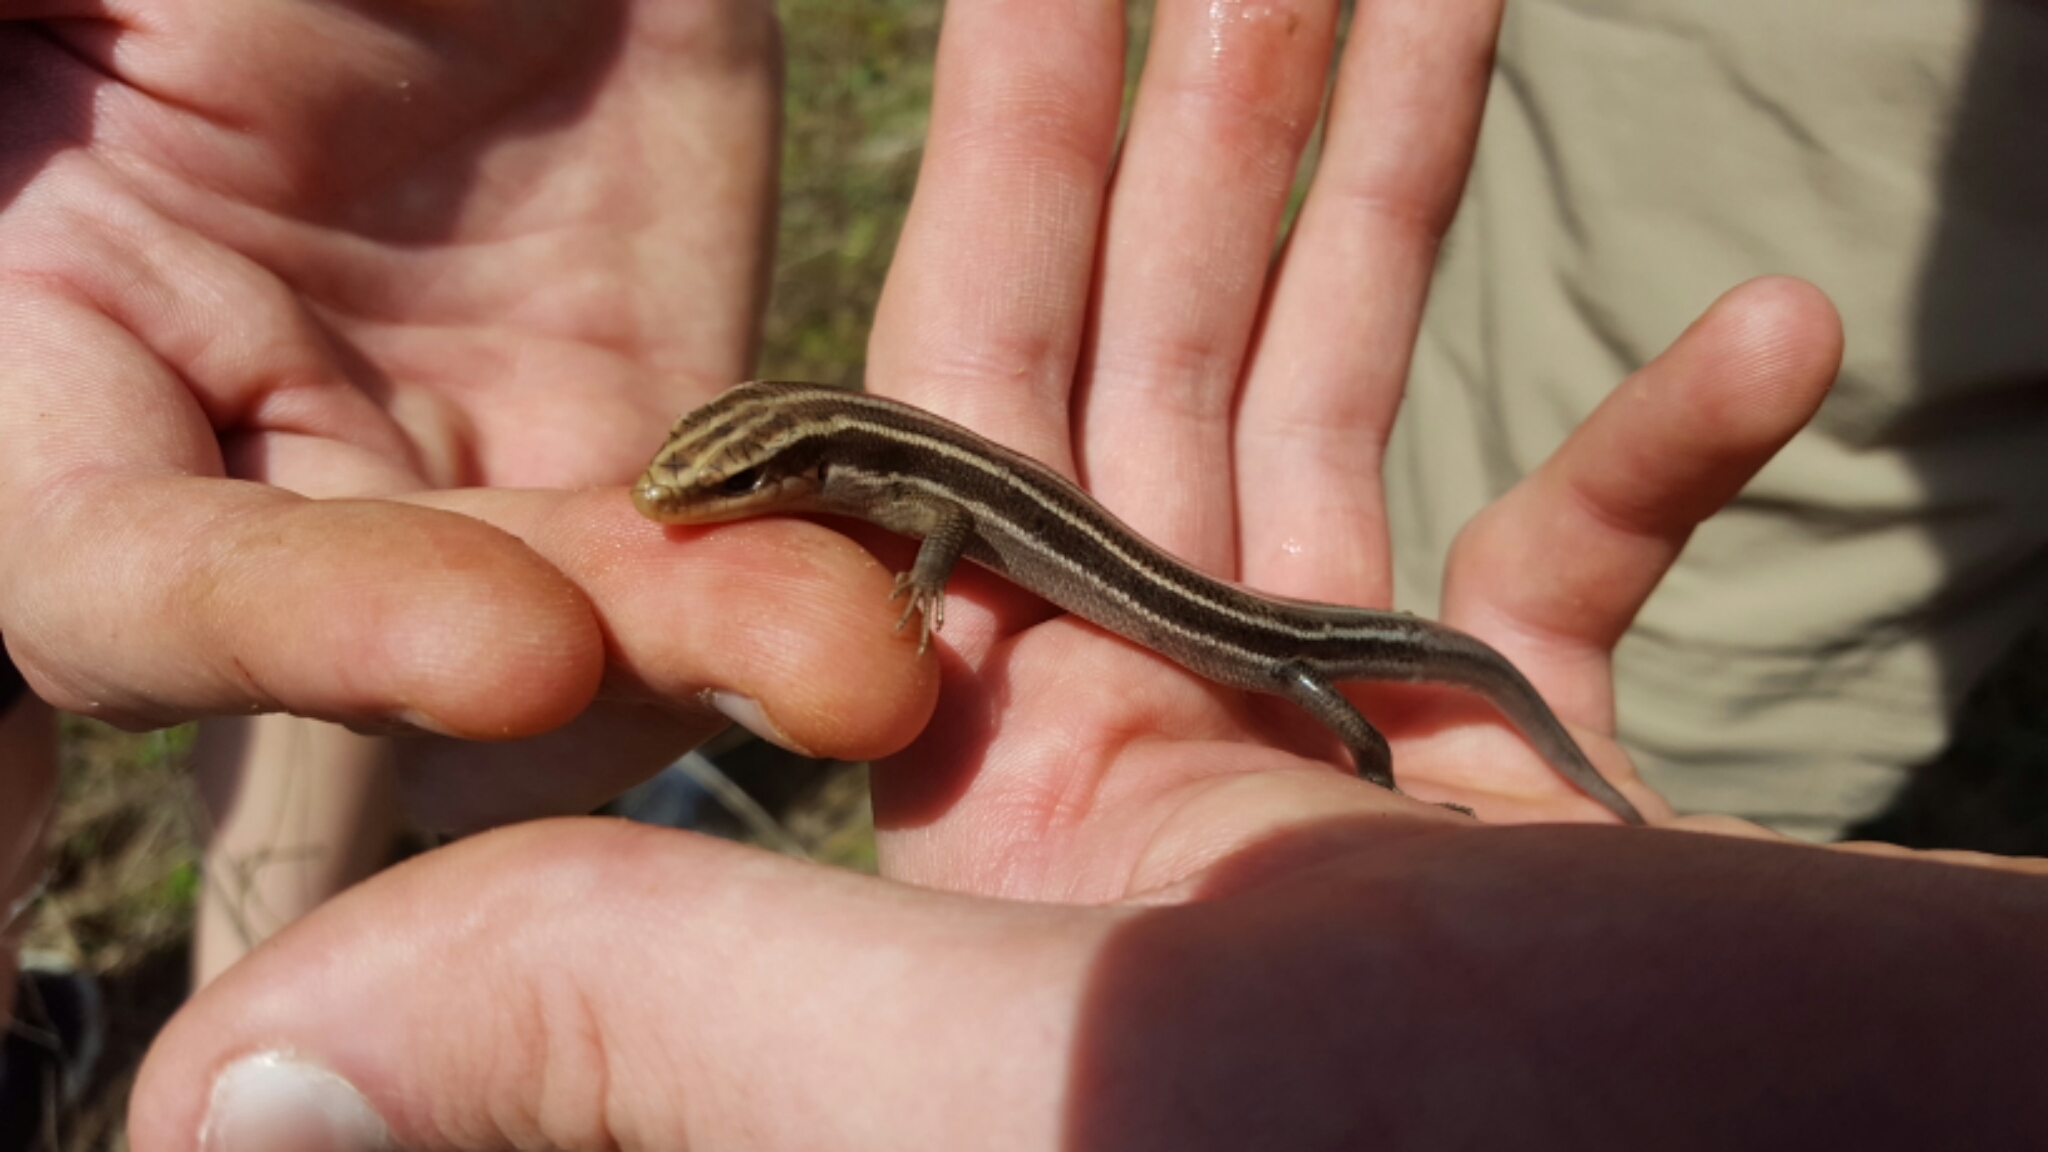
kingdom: Animalia
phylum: Chordata
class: Squamata
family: Scincidae
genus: Plestiodon
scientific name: Plestiodon fasciatus
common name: Five-lined skink
